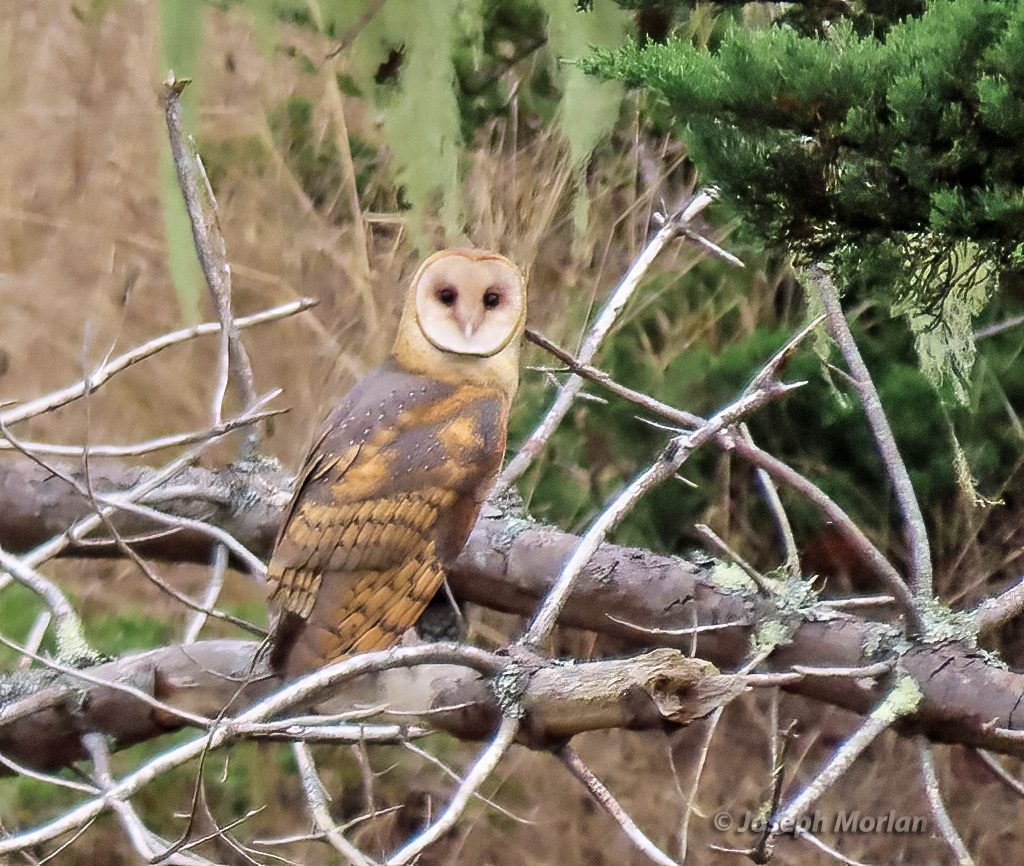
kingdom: Animalia
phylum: Chordata
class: Aves
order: Strigiformes
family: Tytonidae
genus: Tyto
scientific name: Tyto alba
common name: Barn owl
